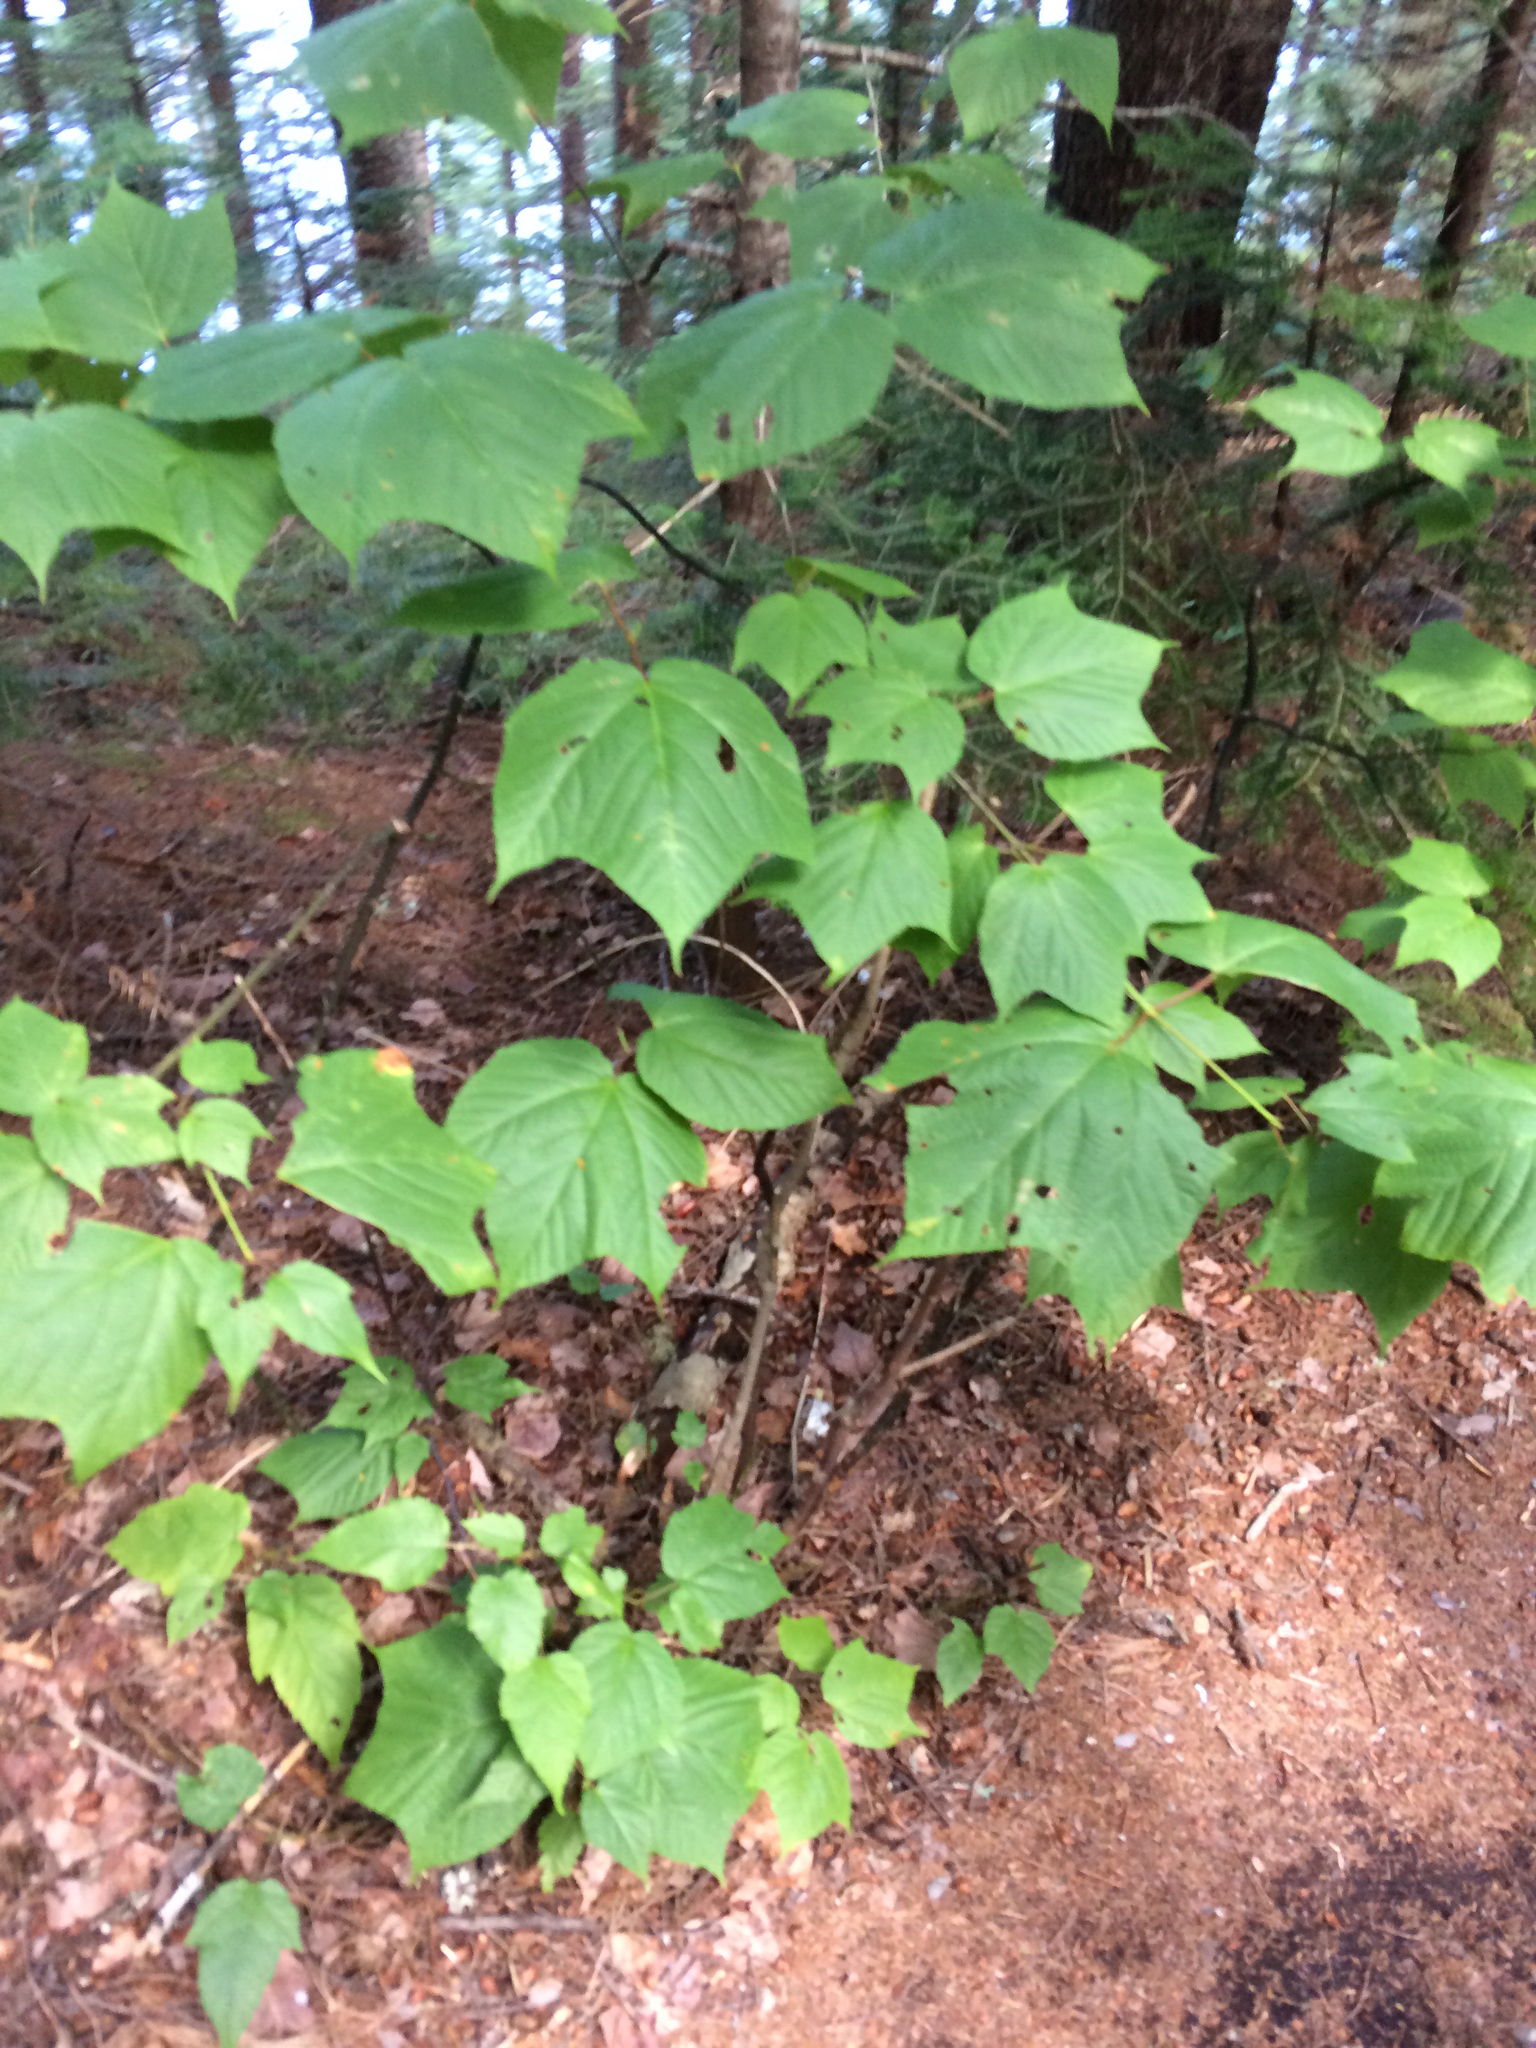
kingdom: Plantae
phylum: Tracheophyta
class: Magnoliopsida
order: Sapindales
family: Sapindaceae
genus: Acer
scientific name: Acer pensylvanicum
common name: Moosewood
